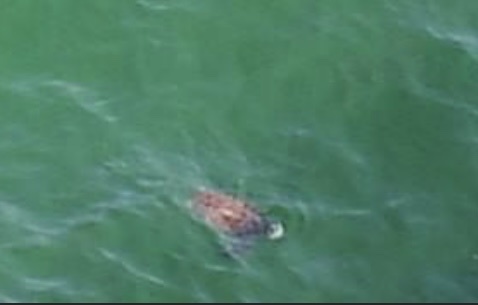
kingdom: Animalia
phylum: Chordata
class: Testudines
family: Cheloniidae
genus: Chelonia
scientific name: Chelonia mydas
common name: Green turtle
